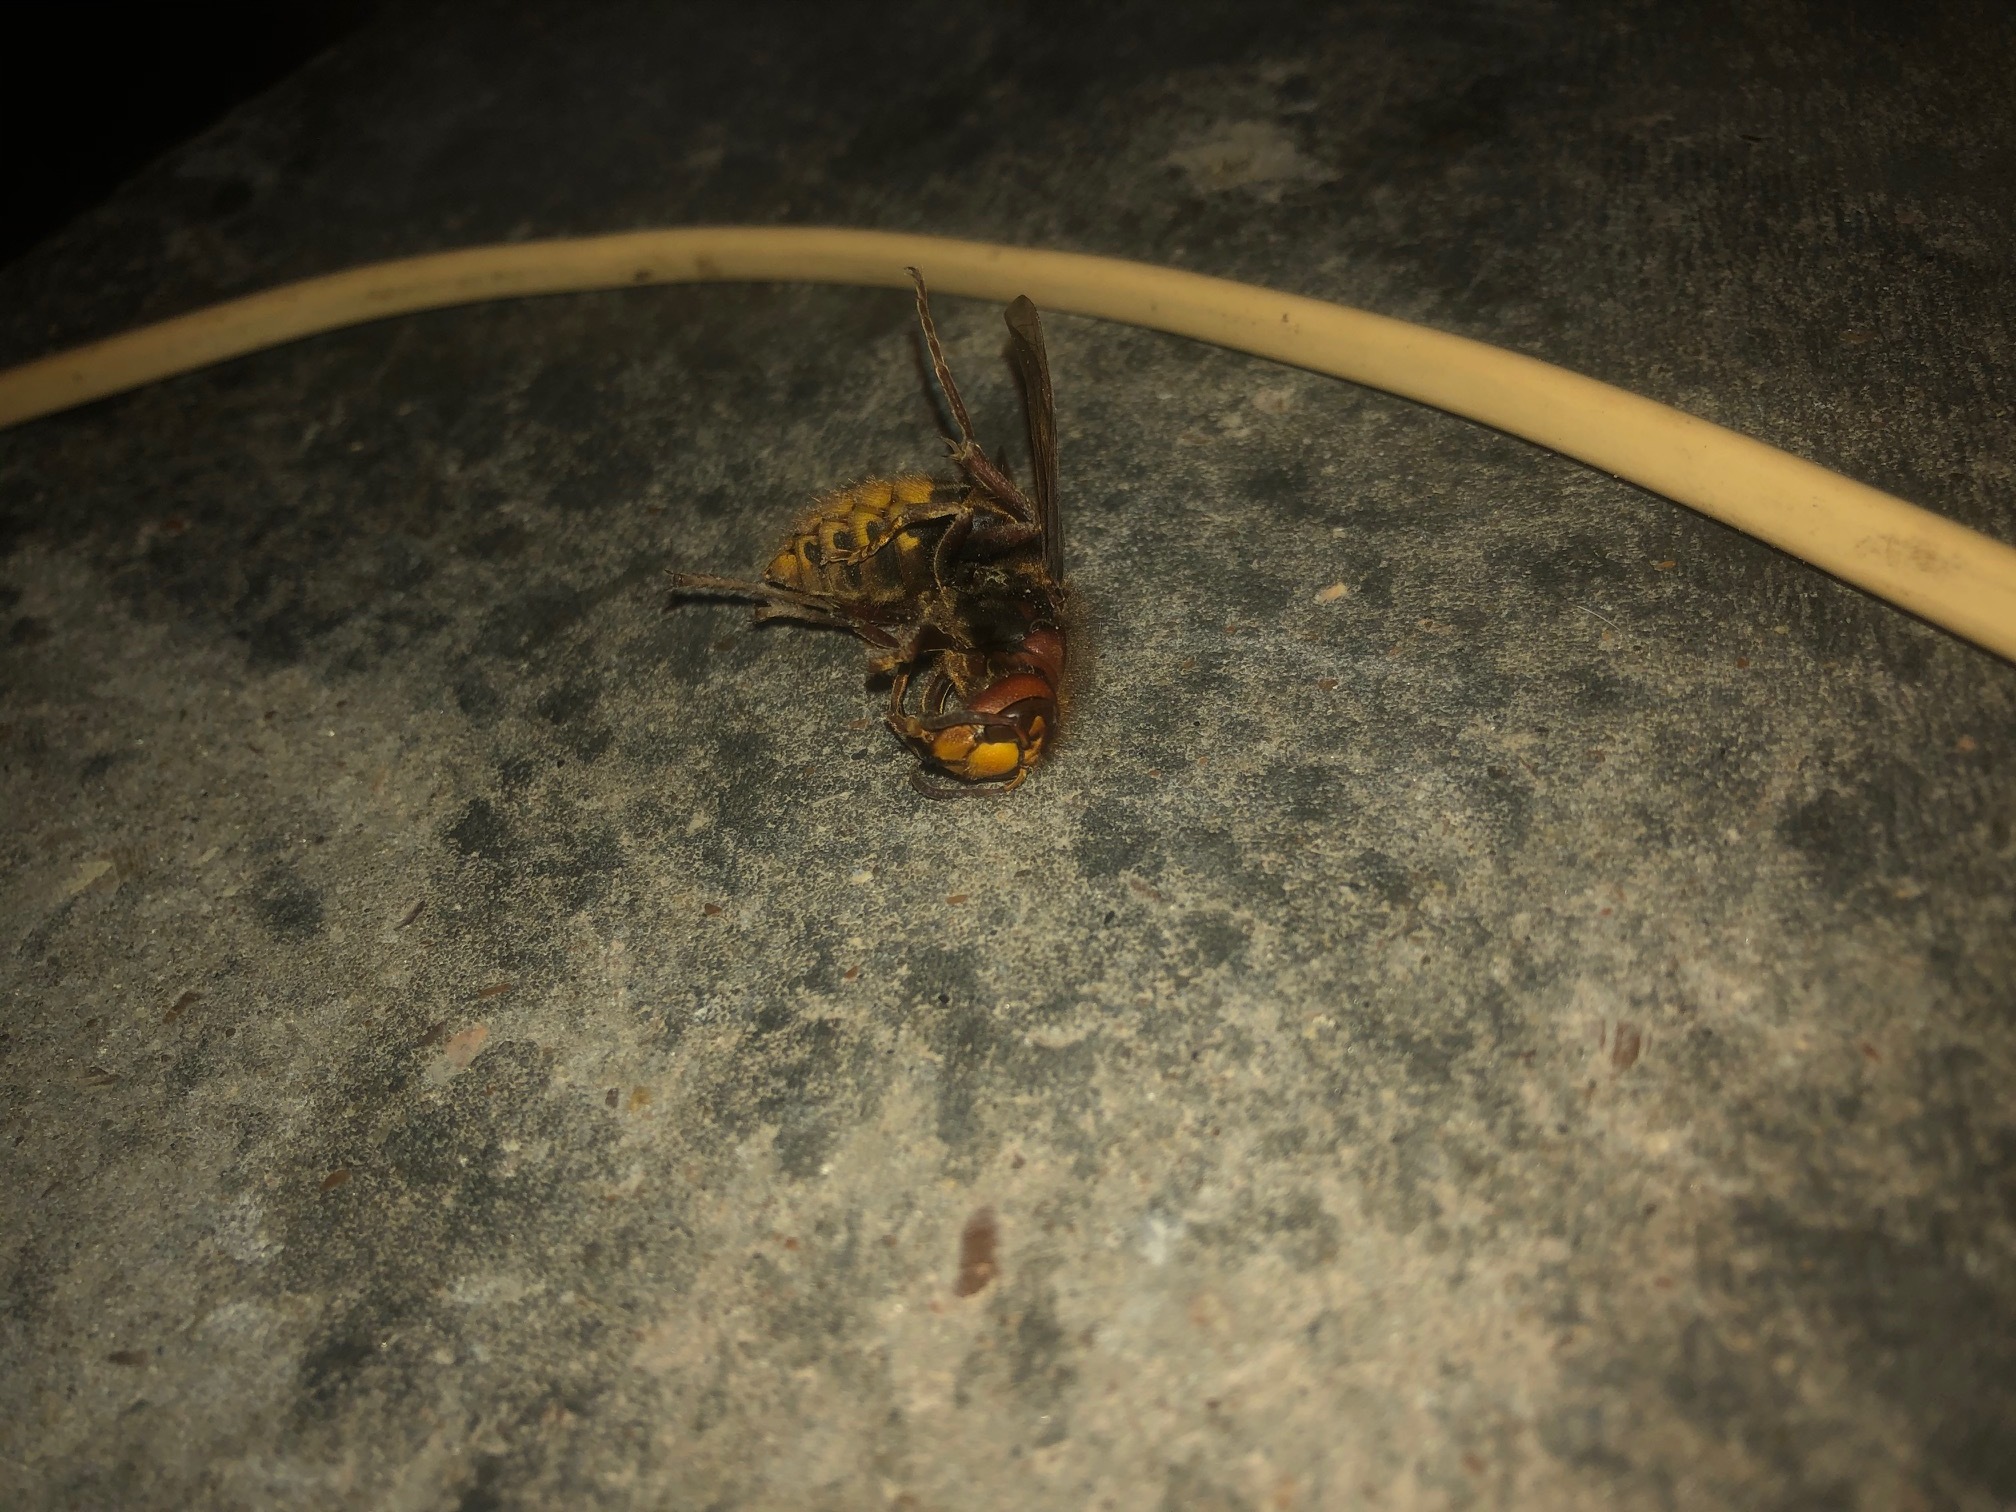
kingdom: Animalia
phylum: Arthropoda
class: Insecta
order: Hymenoptera
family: Vespidae
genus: Vespa
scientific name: Vespa crabro
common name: Hornet
